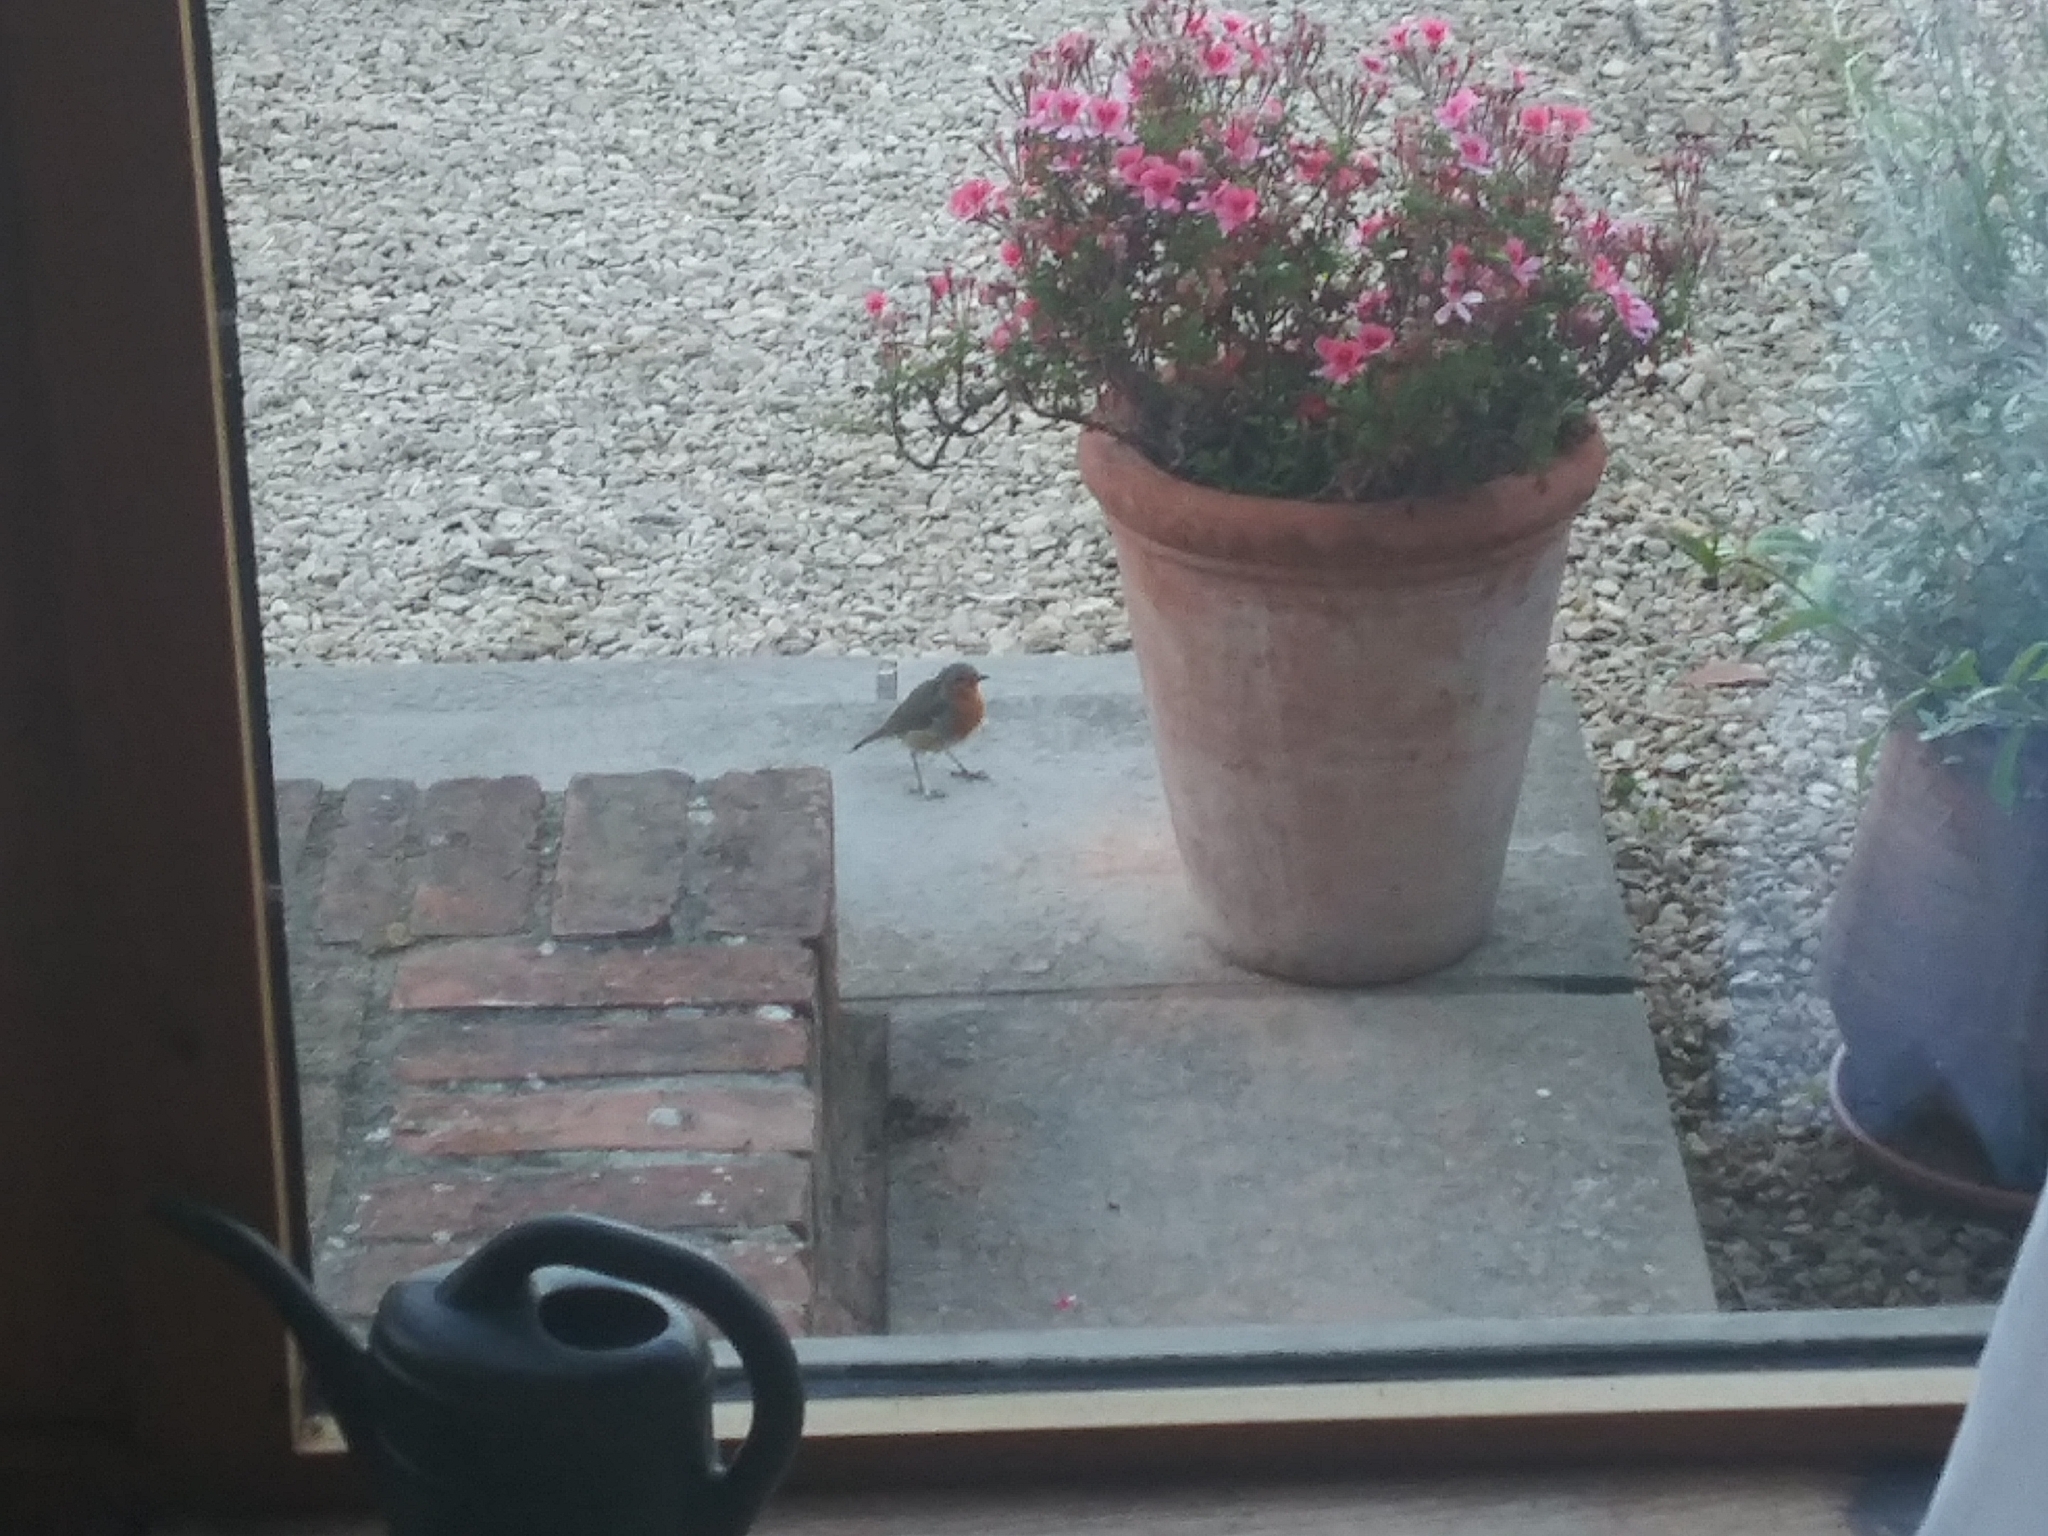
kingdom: Animalia
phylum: Chordata
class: Aves
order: Passeriformes
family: Muscicapidae
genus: Erithacus
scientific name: Erithacus rubecula
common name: European robin
